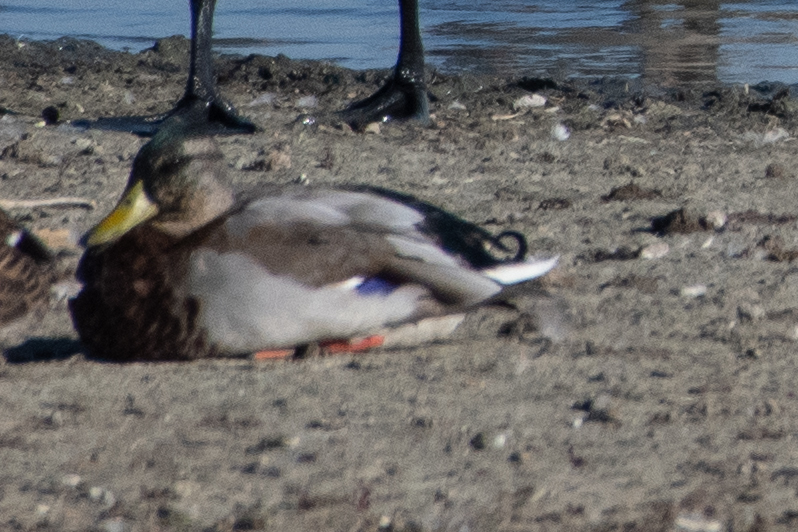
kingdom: Animalia
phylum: Chordata
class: Aves
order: Anseriformes
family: Anatidae
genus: Anas
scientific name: Anas platyrhynchos
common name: Mallard
